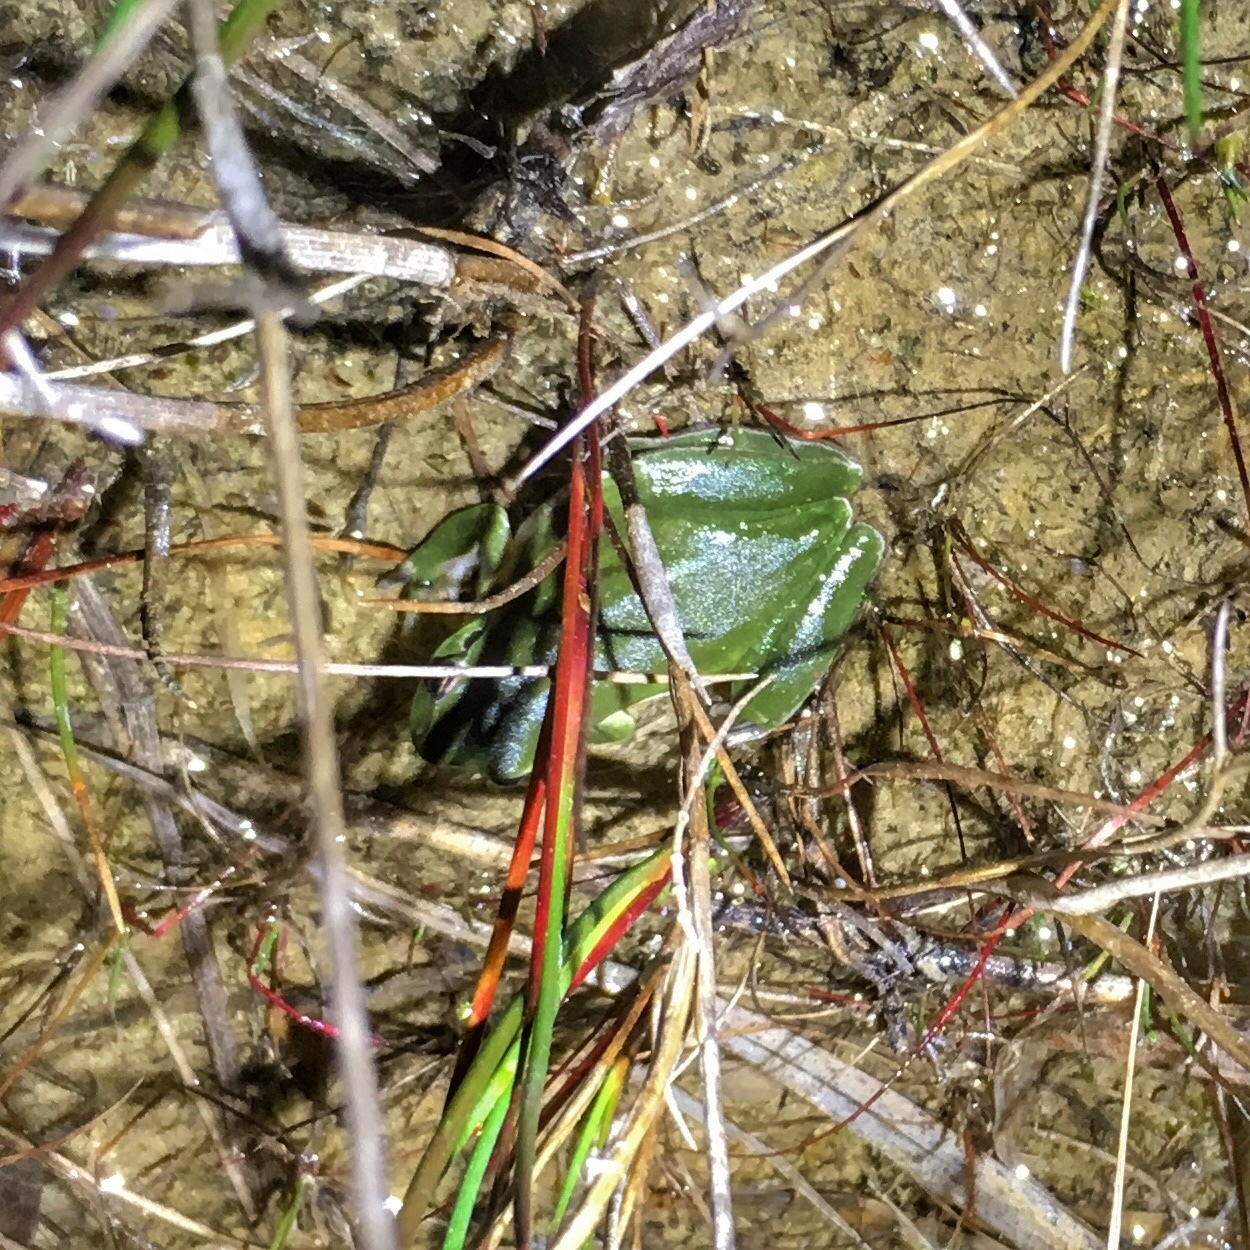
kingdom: Animalia
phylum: Chordata
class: Amphibia
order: Anura
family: Hylidae
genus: Hyla
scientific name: Hyla meridionalis
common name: Stripeless tree frog
